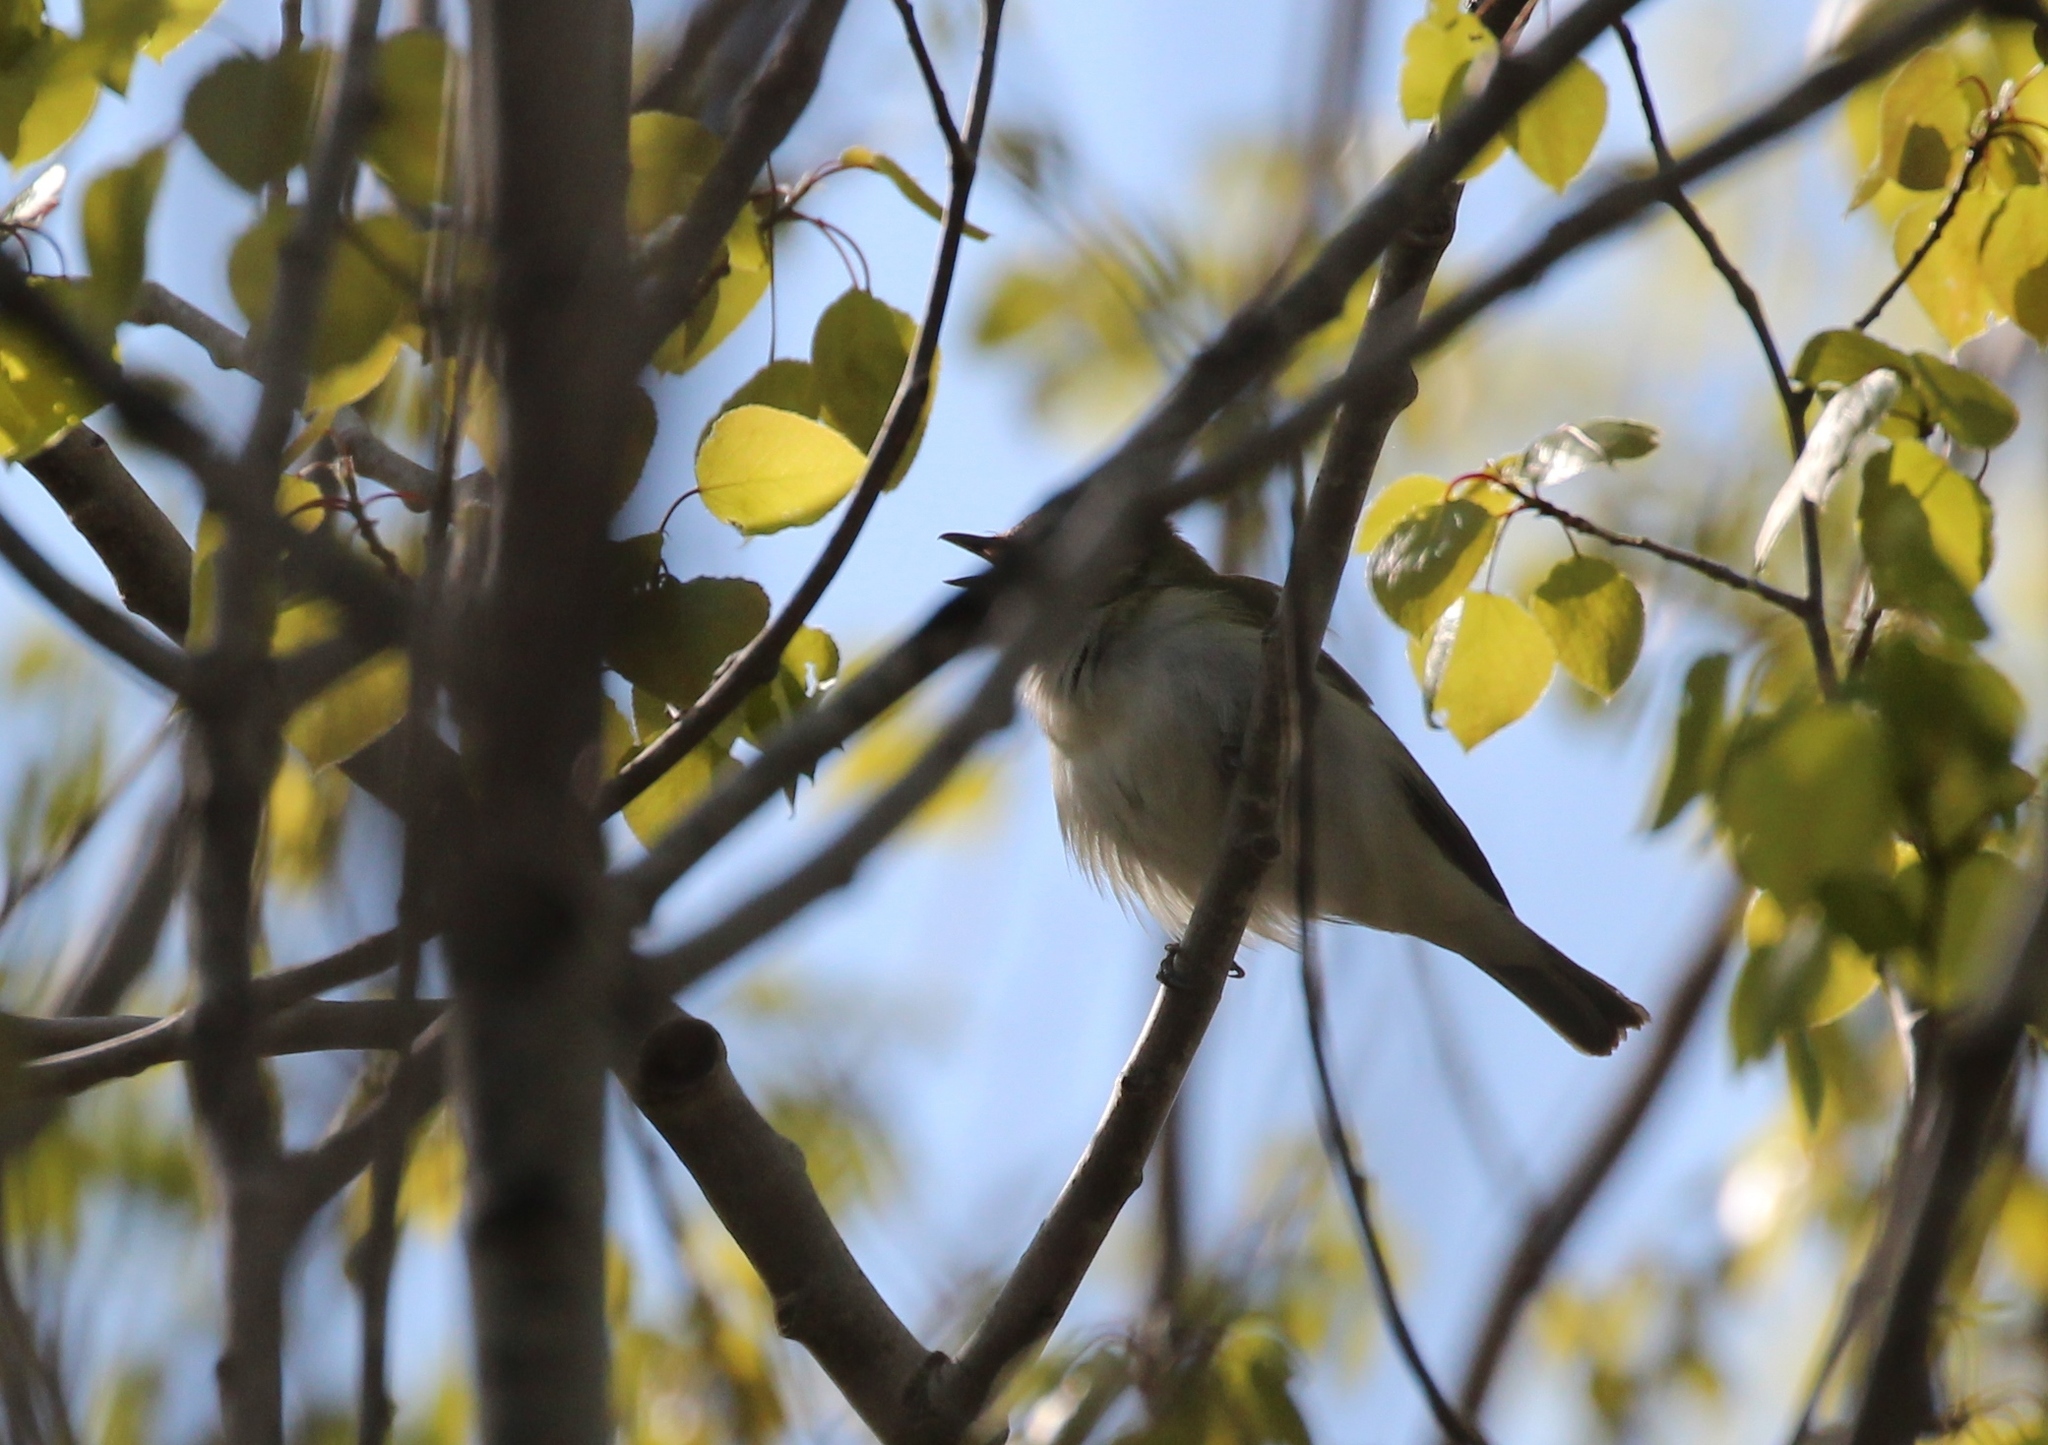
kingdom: Animalia
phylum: Chordata
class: Aves
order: Passeriformes
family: Vireonidae
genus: Vireo
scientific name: Vireo olivaceus
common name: Red-eyed vireo
